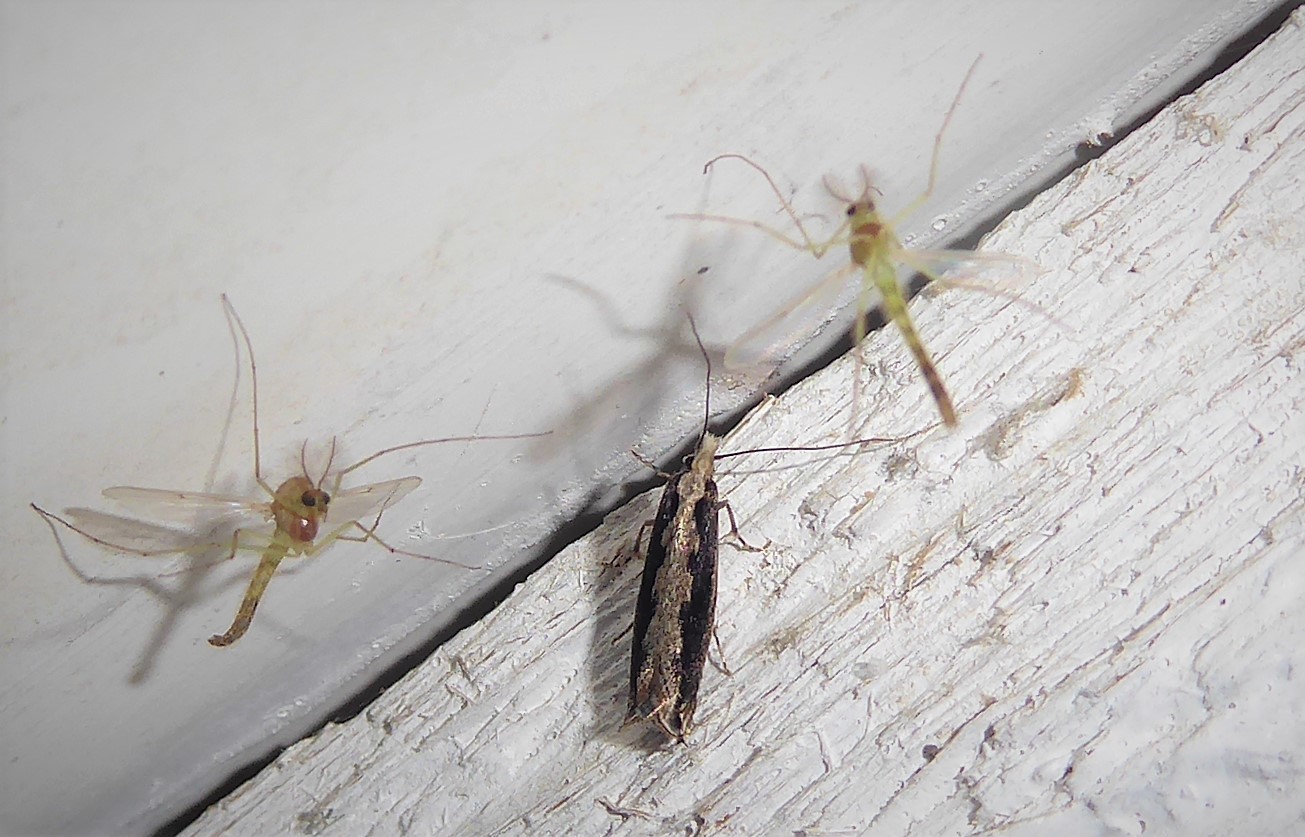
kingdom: Animalia
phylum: Arthropoda
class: Insecta
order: Lepidoptera
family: Plutellidae
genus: Plutella
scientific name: Plutella xylostella
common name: Diamond-back moth
